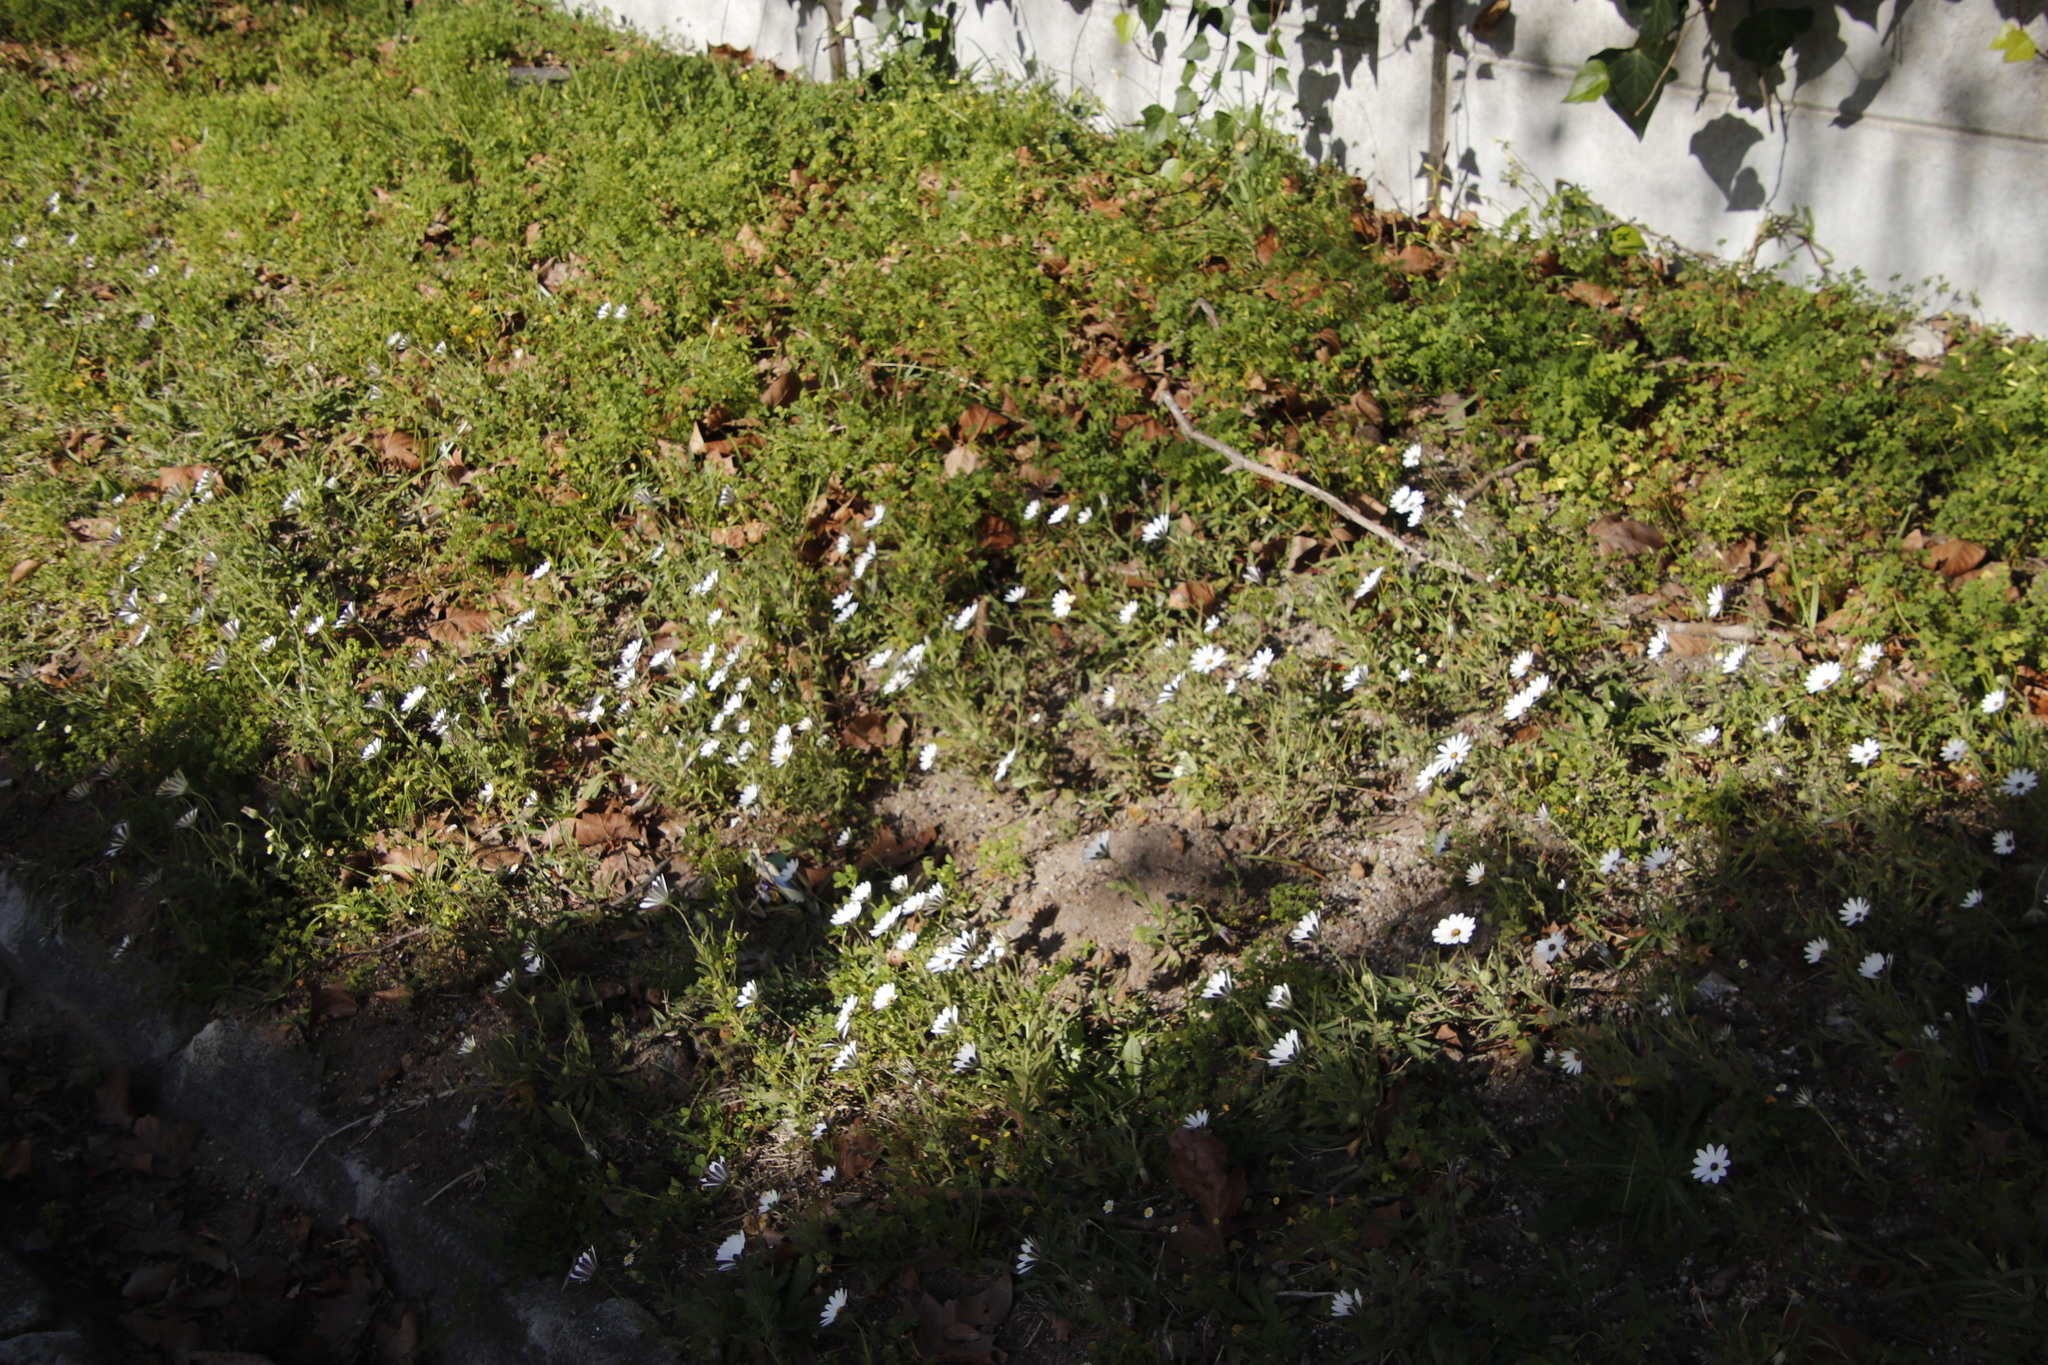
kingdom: Plantae
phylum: Tracheophyta
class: Magnoliopsida
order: Asterales
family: Asteraceae
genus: Dimorphotheca
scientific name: Dimorphotheca pluvialis
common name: Weather prophet
